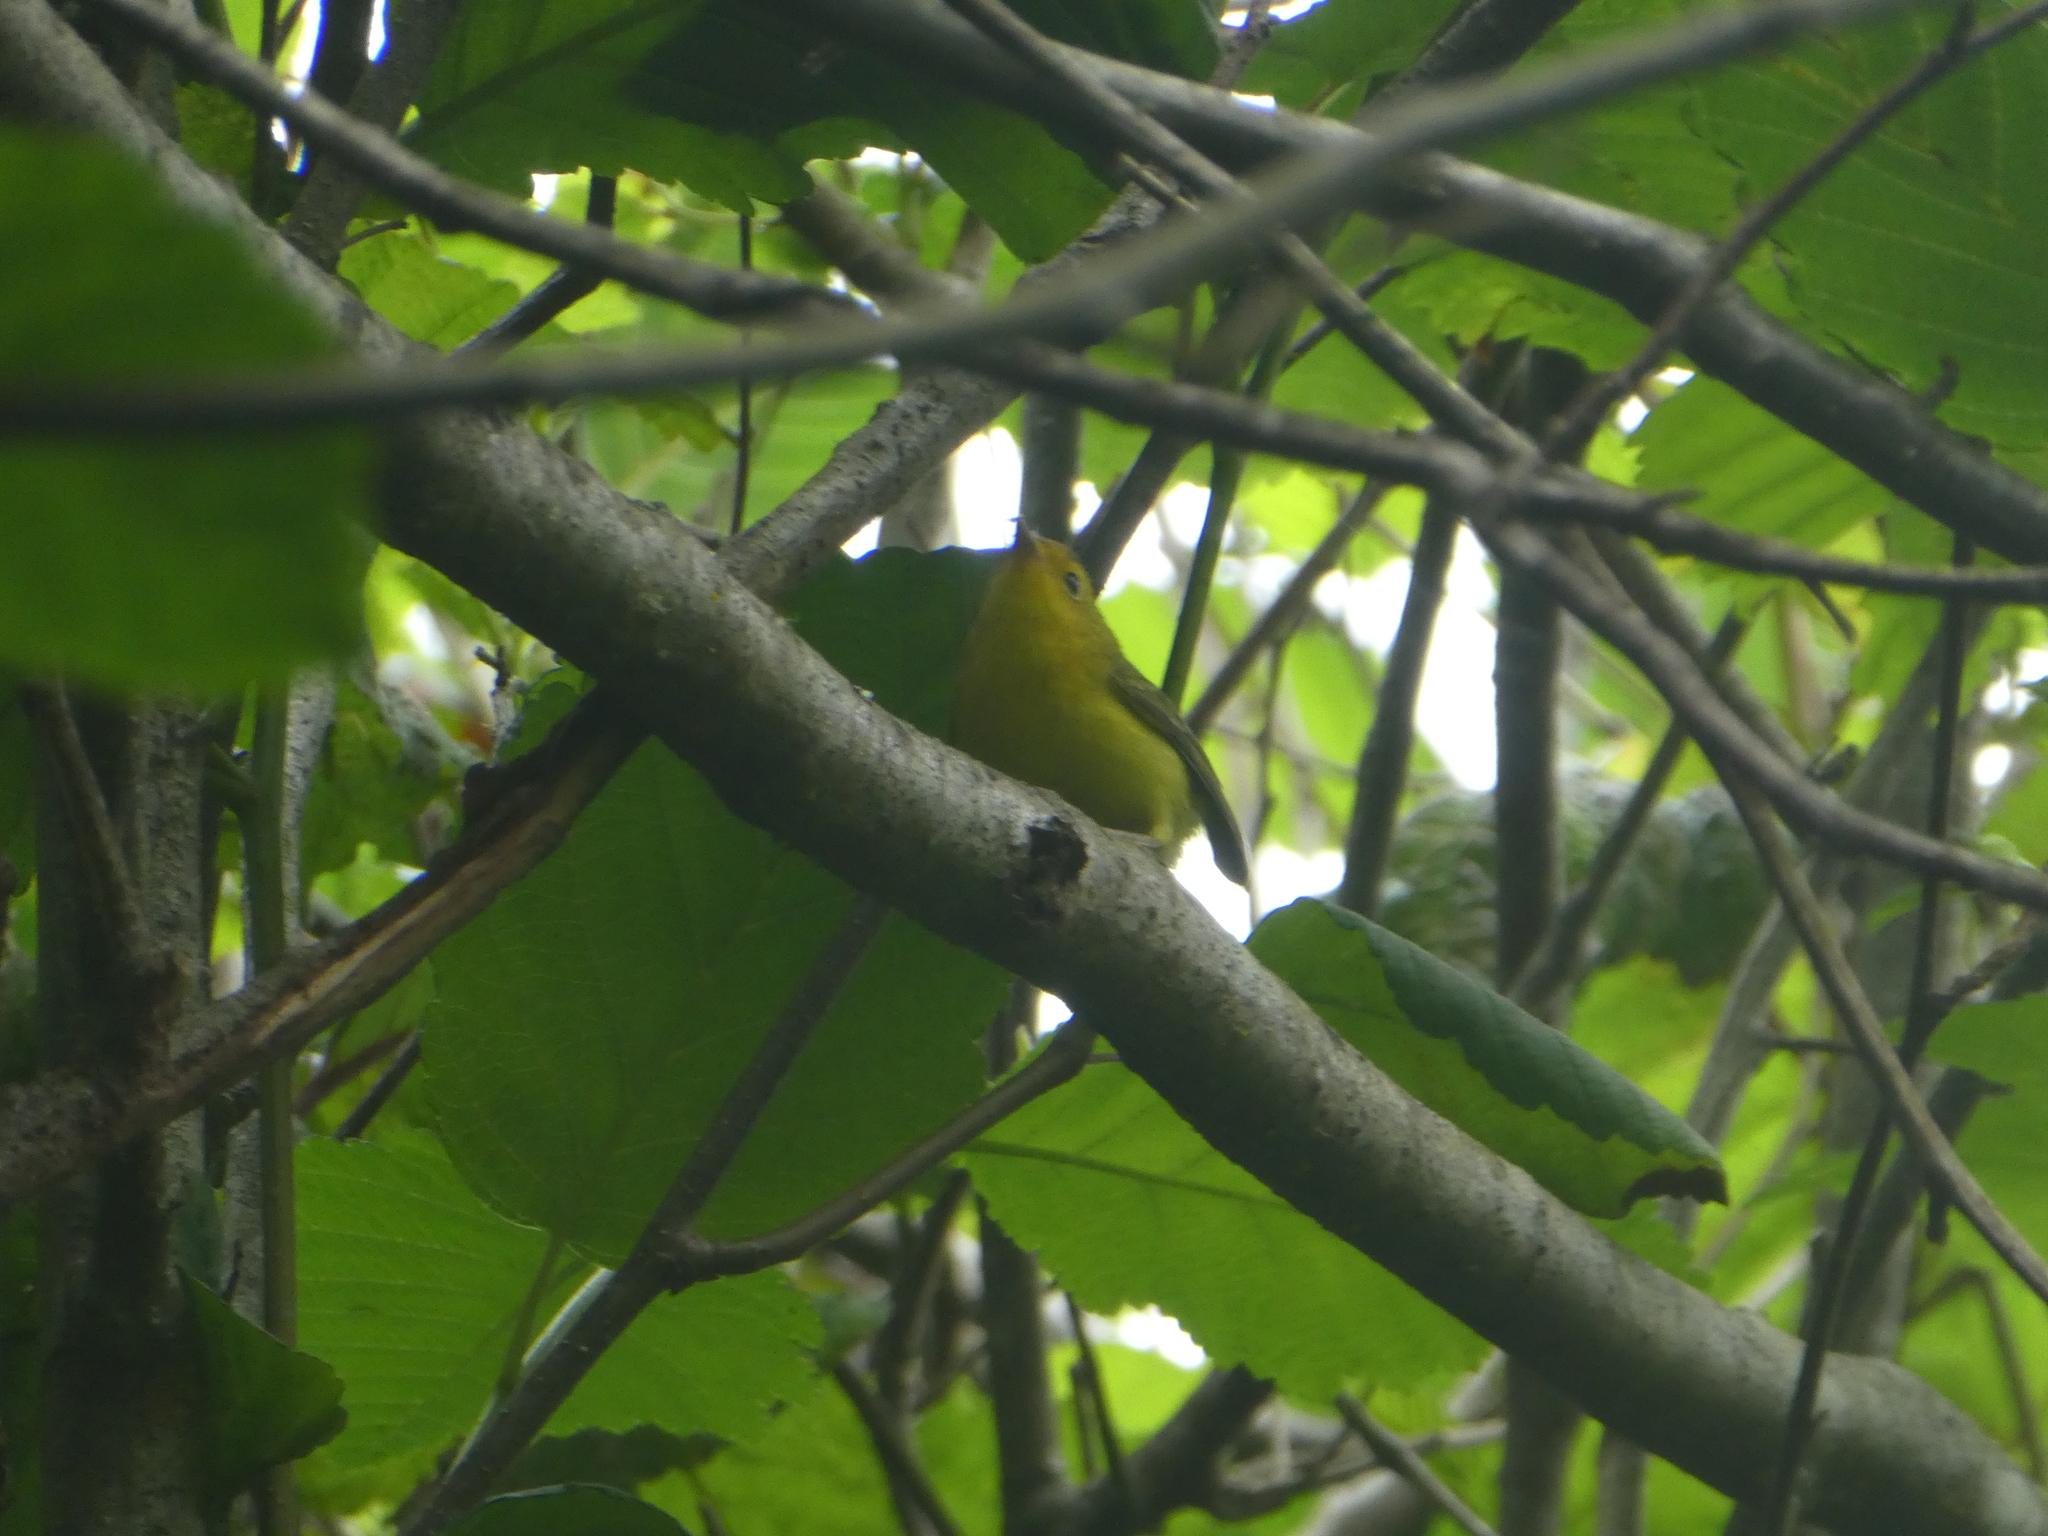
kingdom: Animalia
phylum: Chordata
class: Aves
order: Passeriformes
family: Parulidae
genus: Cardellina
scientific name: Cardellina pusilla
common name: Wilson's warbler
